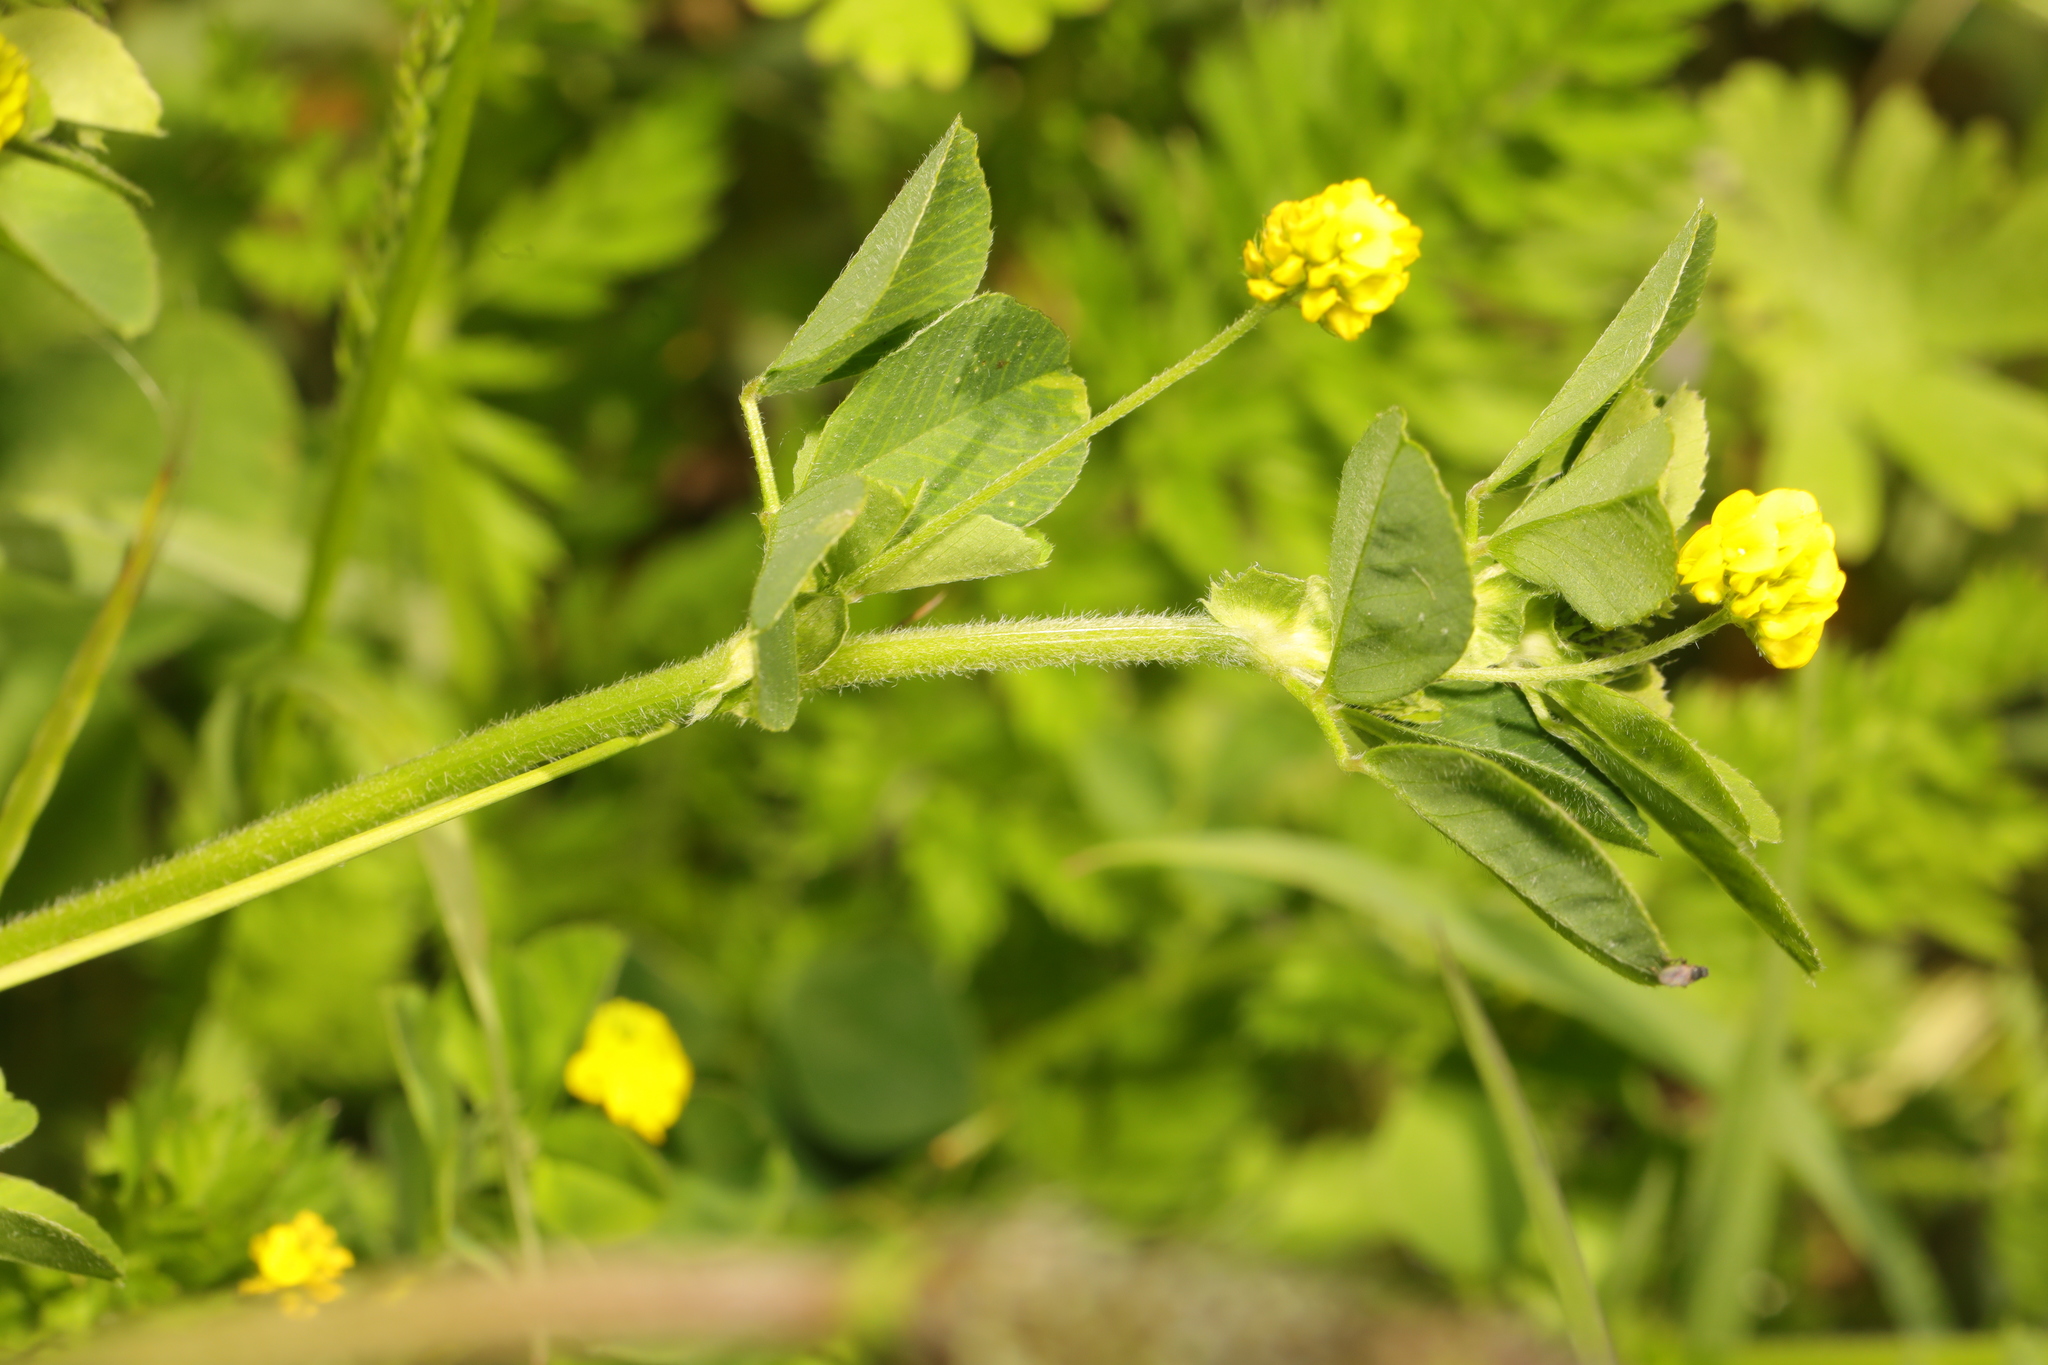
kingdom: Plantae
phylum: Tracheophyta
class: Magnoliopsida
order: Fabales
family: Fabaceae
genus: Medicago
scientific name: Medicago lupulina
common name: Black medick
